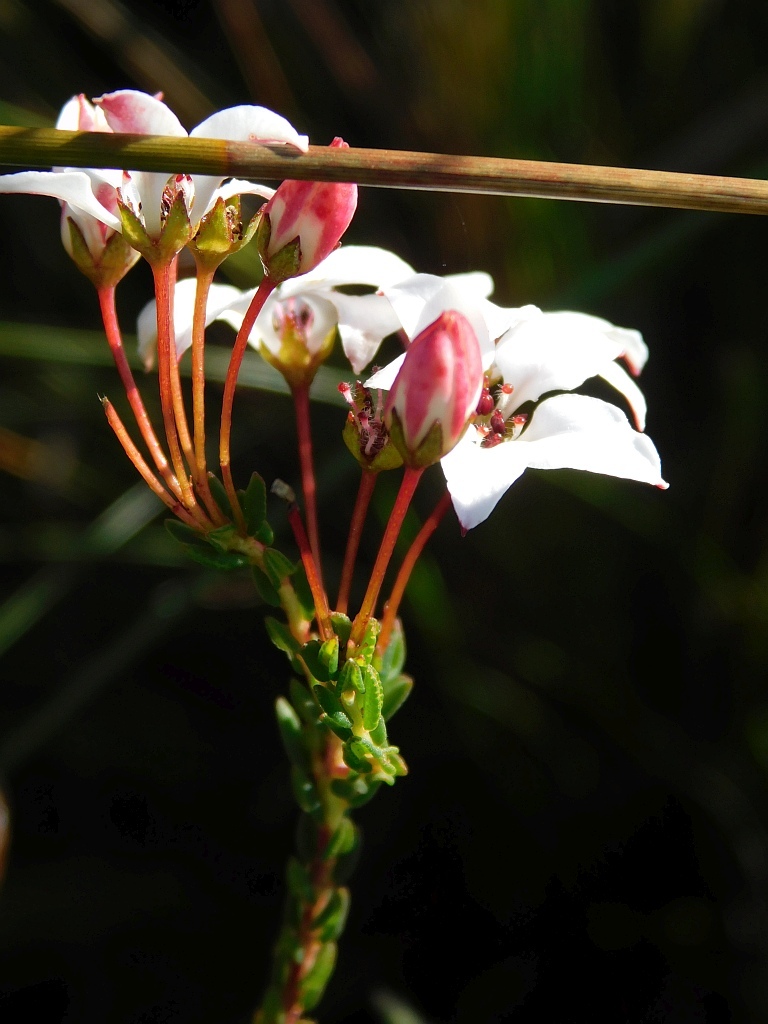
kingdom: Plantae
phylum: Tracheophyta
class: Magnoliopsida
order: Sapindales
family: Rutaceae
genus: Adenandra
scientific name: Adenandra marginata
